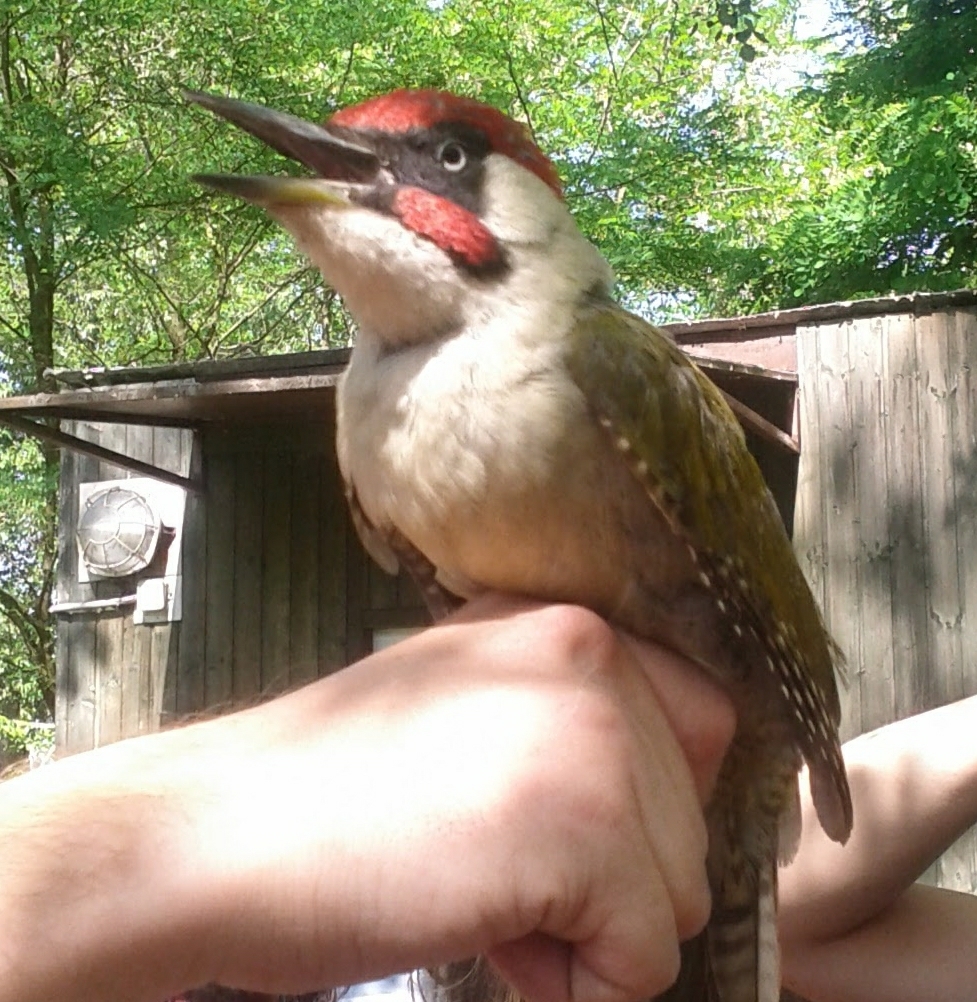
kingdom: Animalia
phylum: Chordata
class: Aves
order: Piciformes
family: Picidae
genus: Picus
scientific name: Picus viridis
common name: European green woodpecker
